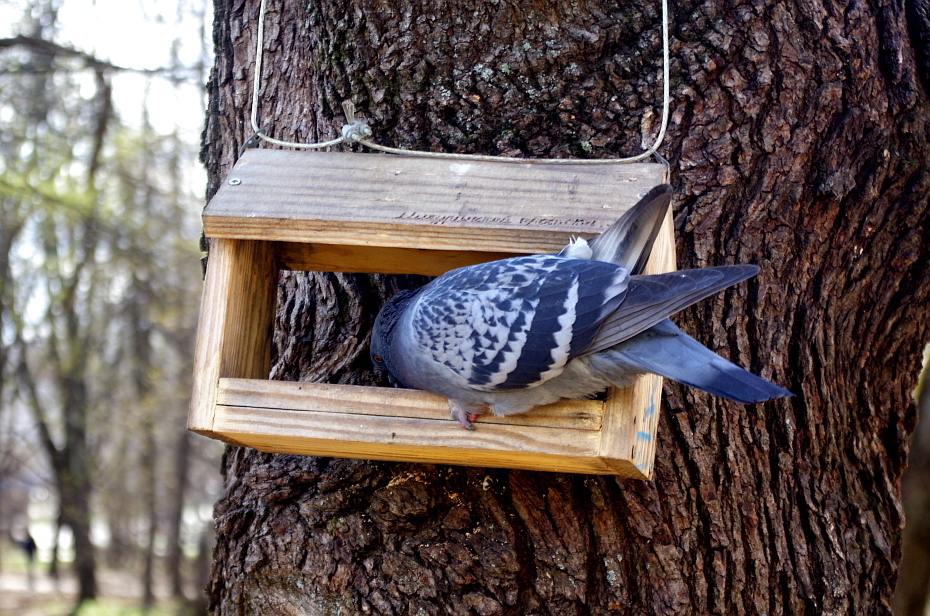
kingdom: Animalia
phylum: Chordata
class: Aves
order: Columbiformes
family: Columbidae
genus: Columba
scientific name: Columba livia
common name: Rock pigeon
